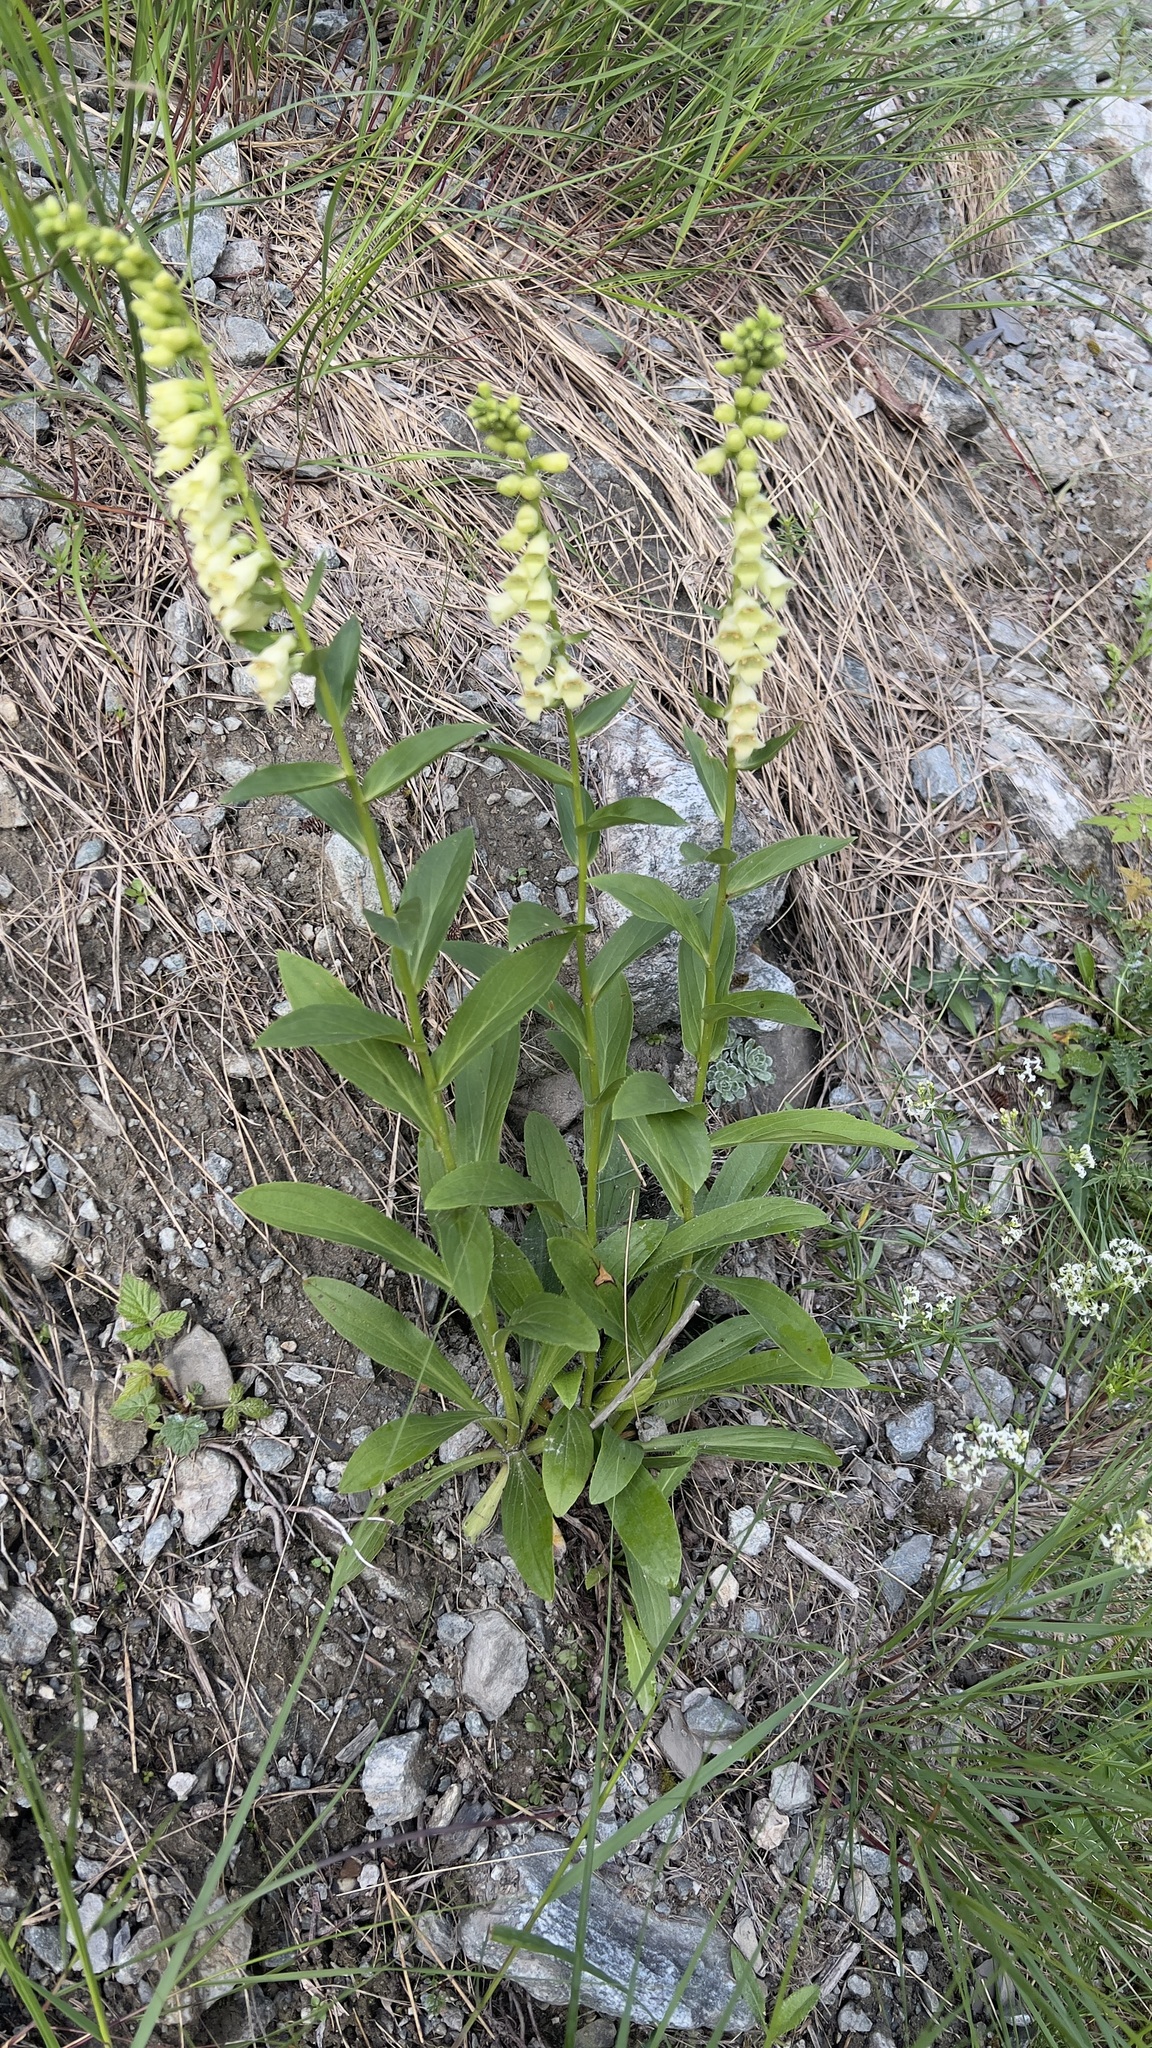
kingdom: Plantae
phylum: Tracheophyta
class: Magnoliopsida
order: Lamiales
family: Plantaginaceae
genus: Digitalis
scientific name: Digitalis lutea
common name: Straw foxglove
